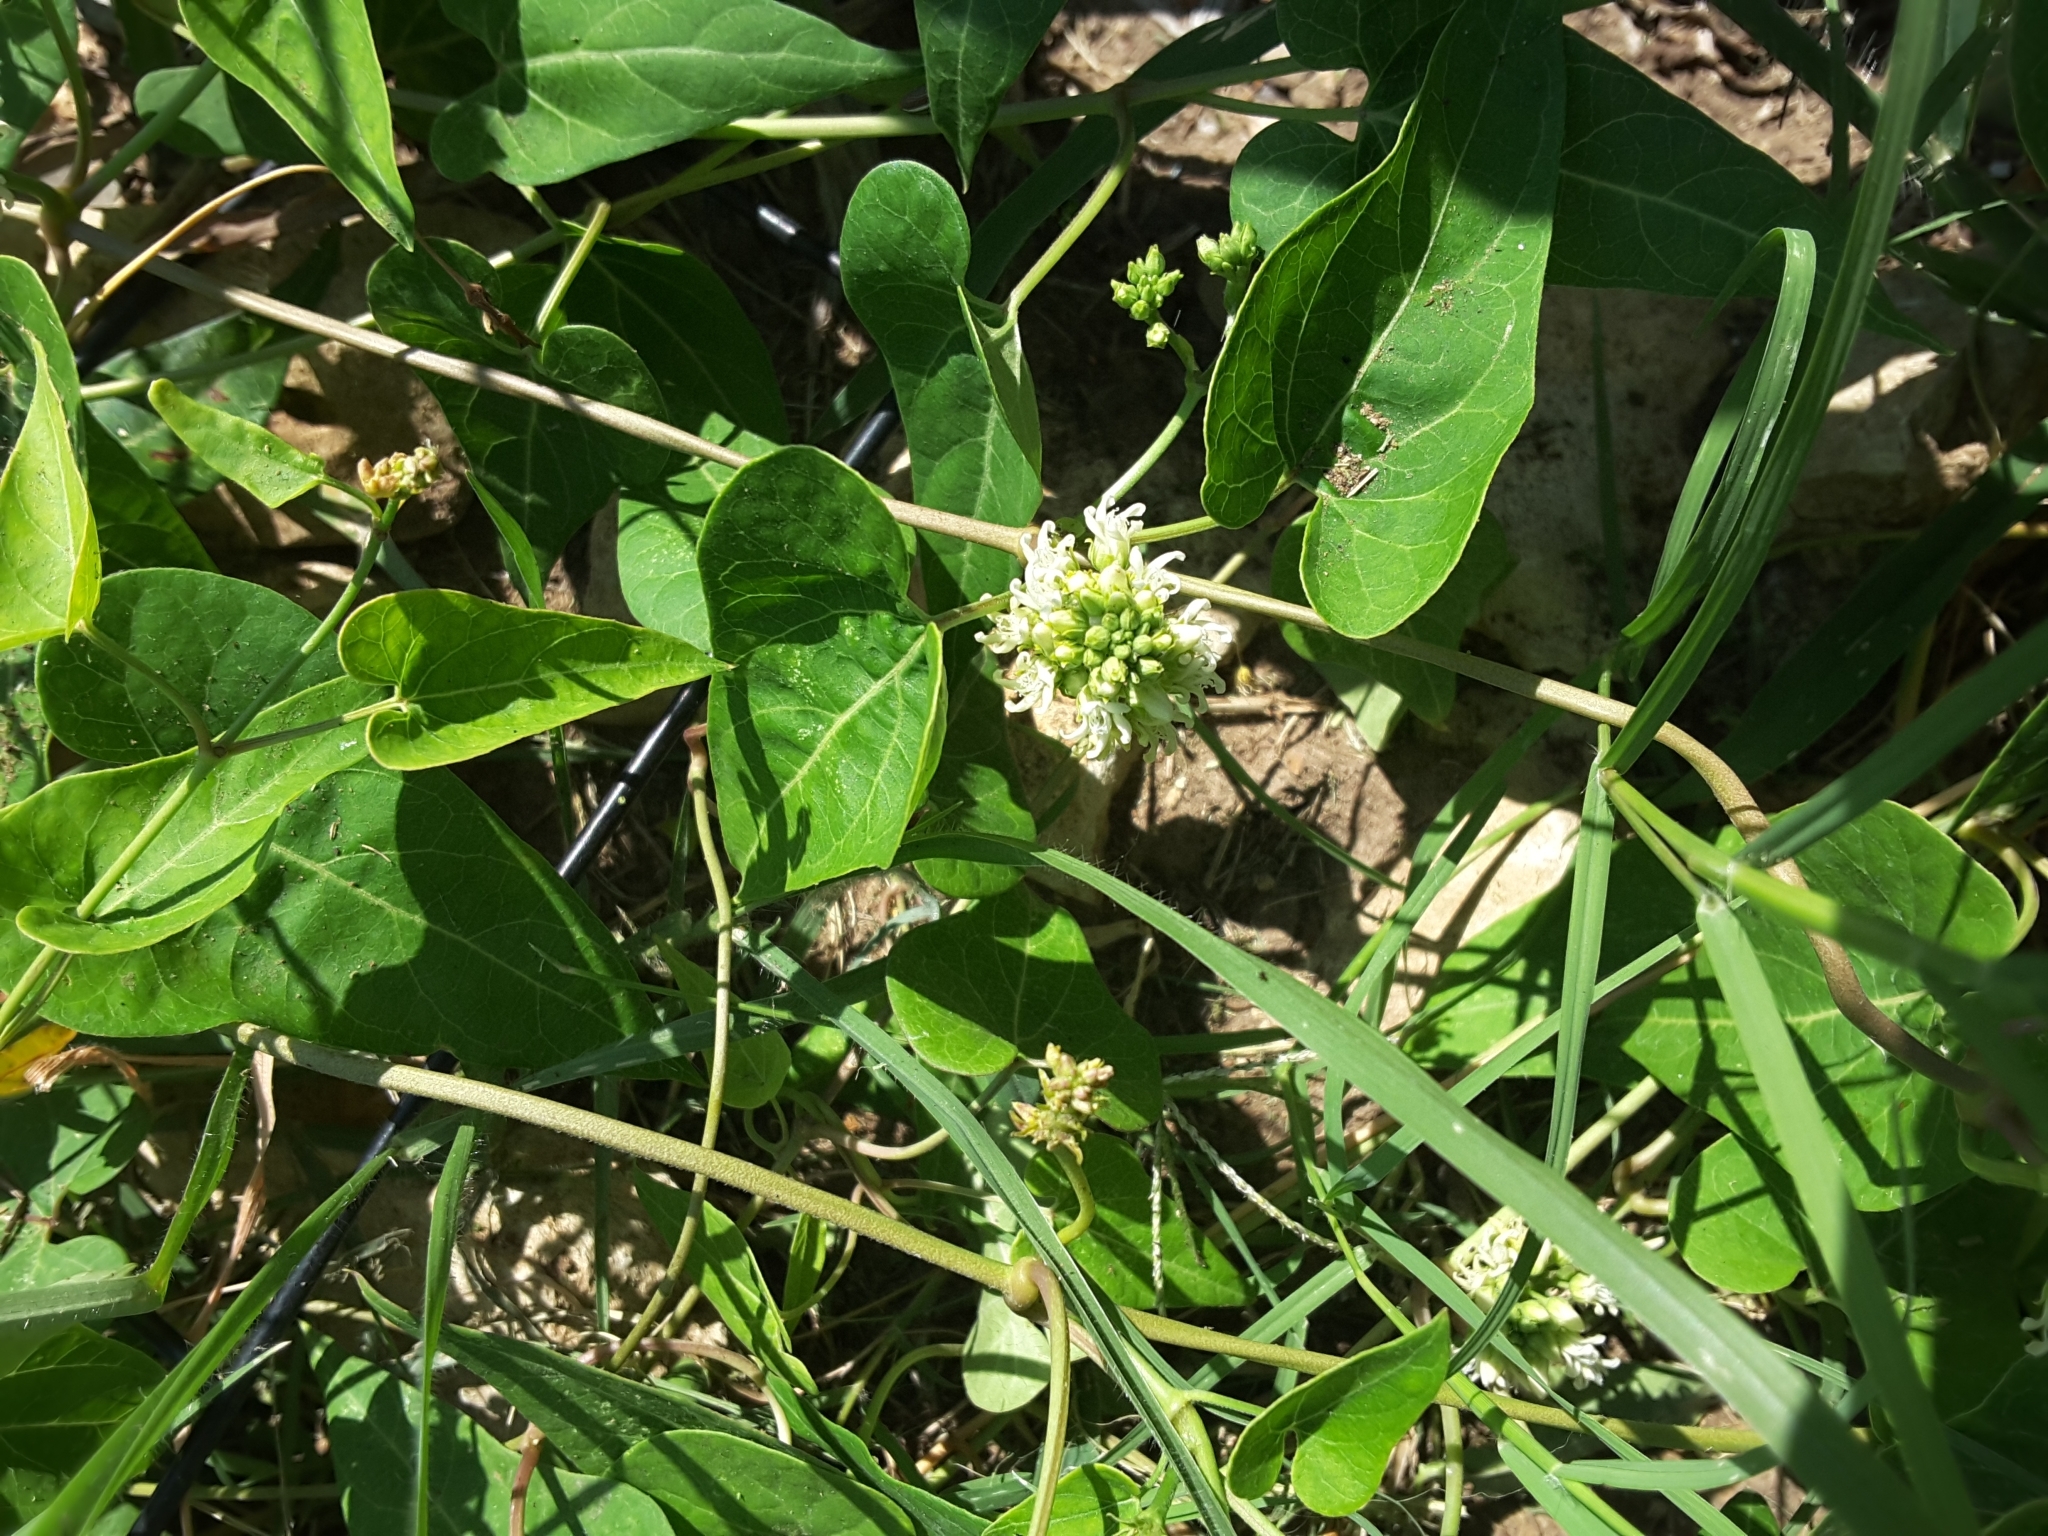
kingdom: Plantae
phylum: Tracheophyta
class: Magnoliopsida
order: Gentianales
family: Apocynaceae
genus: Cynanchum
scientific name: Cynanchum laeve
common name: Sandvine
